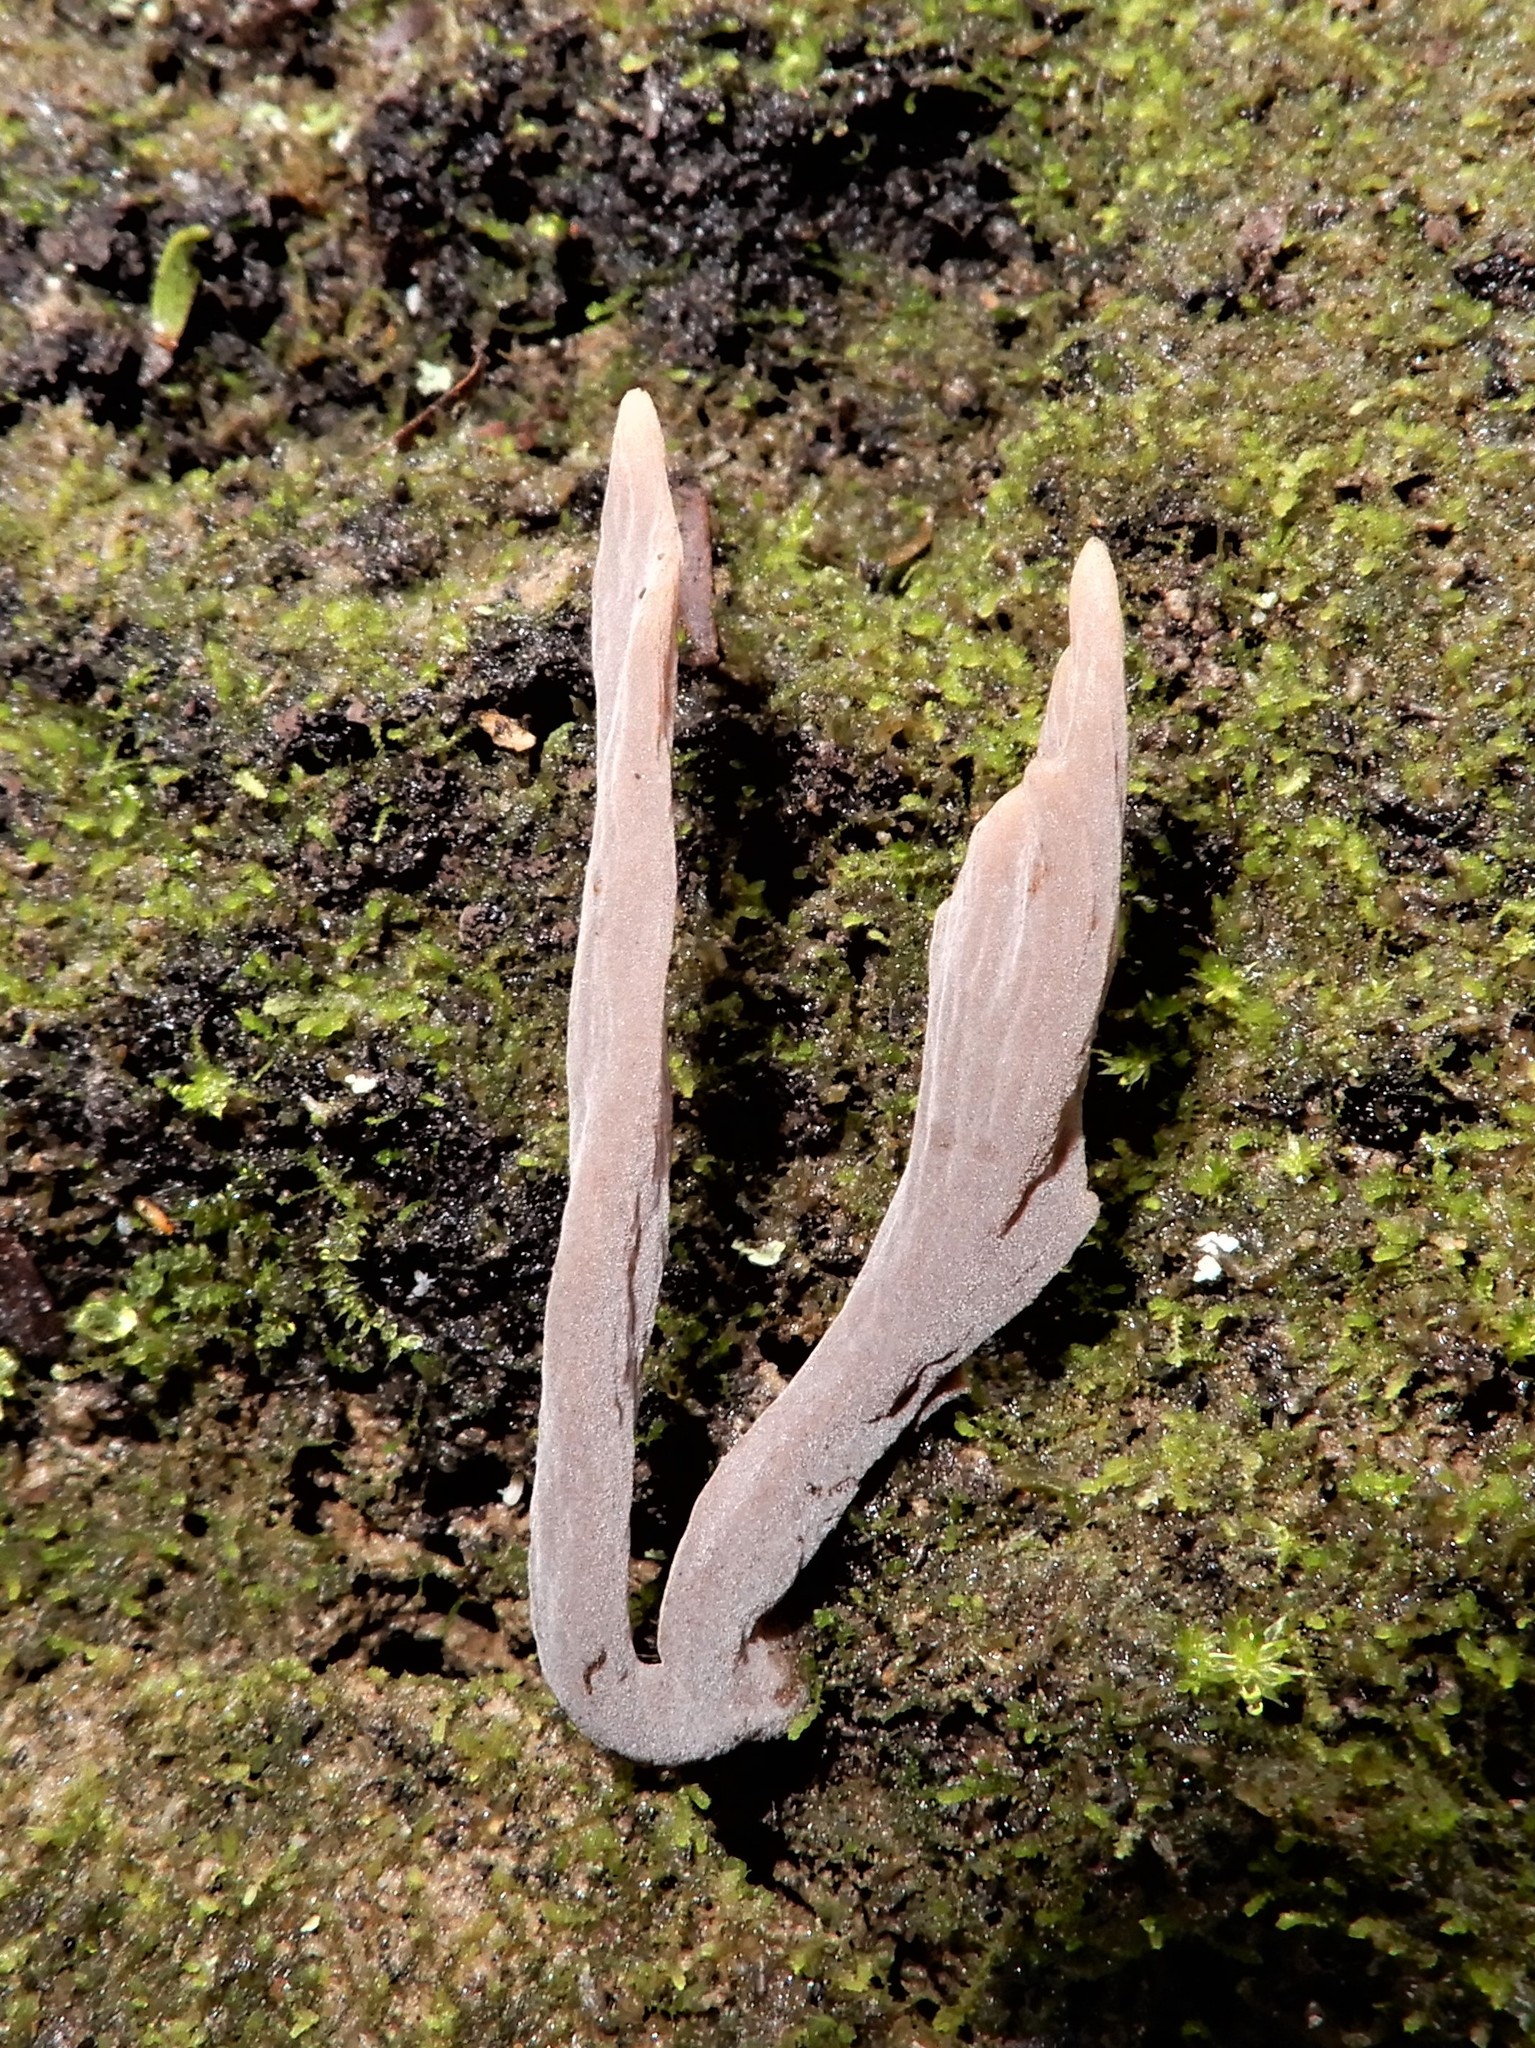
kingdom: Fungi
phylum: Basidiomycota
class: Agaricomycetes
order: Cantharellales
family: Hydnaceae
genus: Clavulina
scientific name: Clavulina
